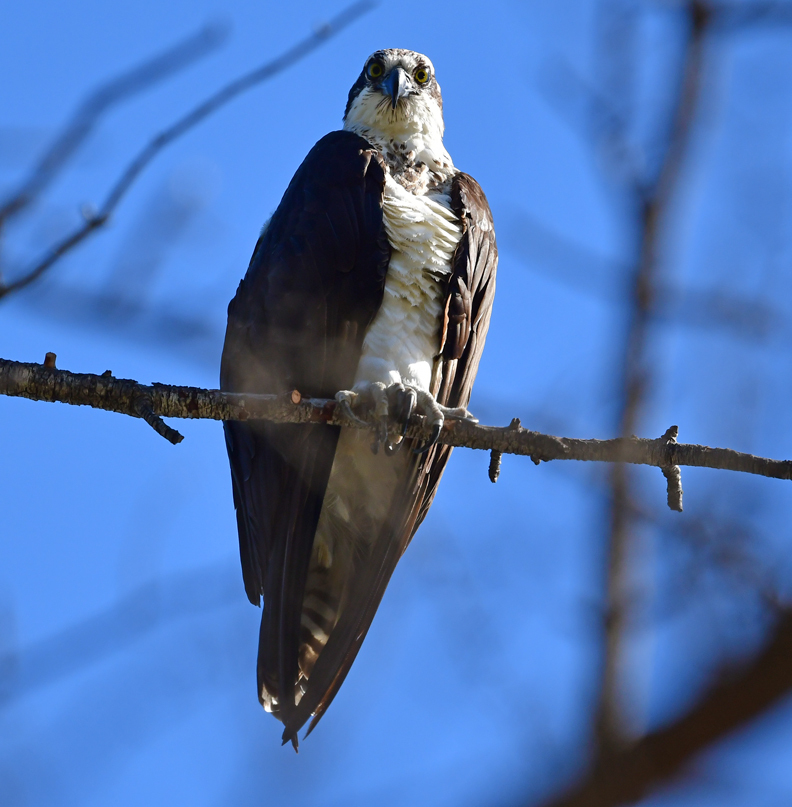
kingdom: Animalia
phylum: Chordata
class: Aves
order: Accipitriformes
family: Pandionidae
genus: Pandion
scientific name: Pandion haliaetus
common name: Osprey
